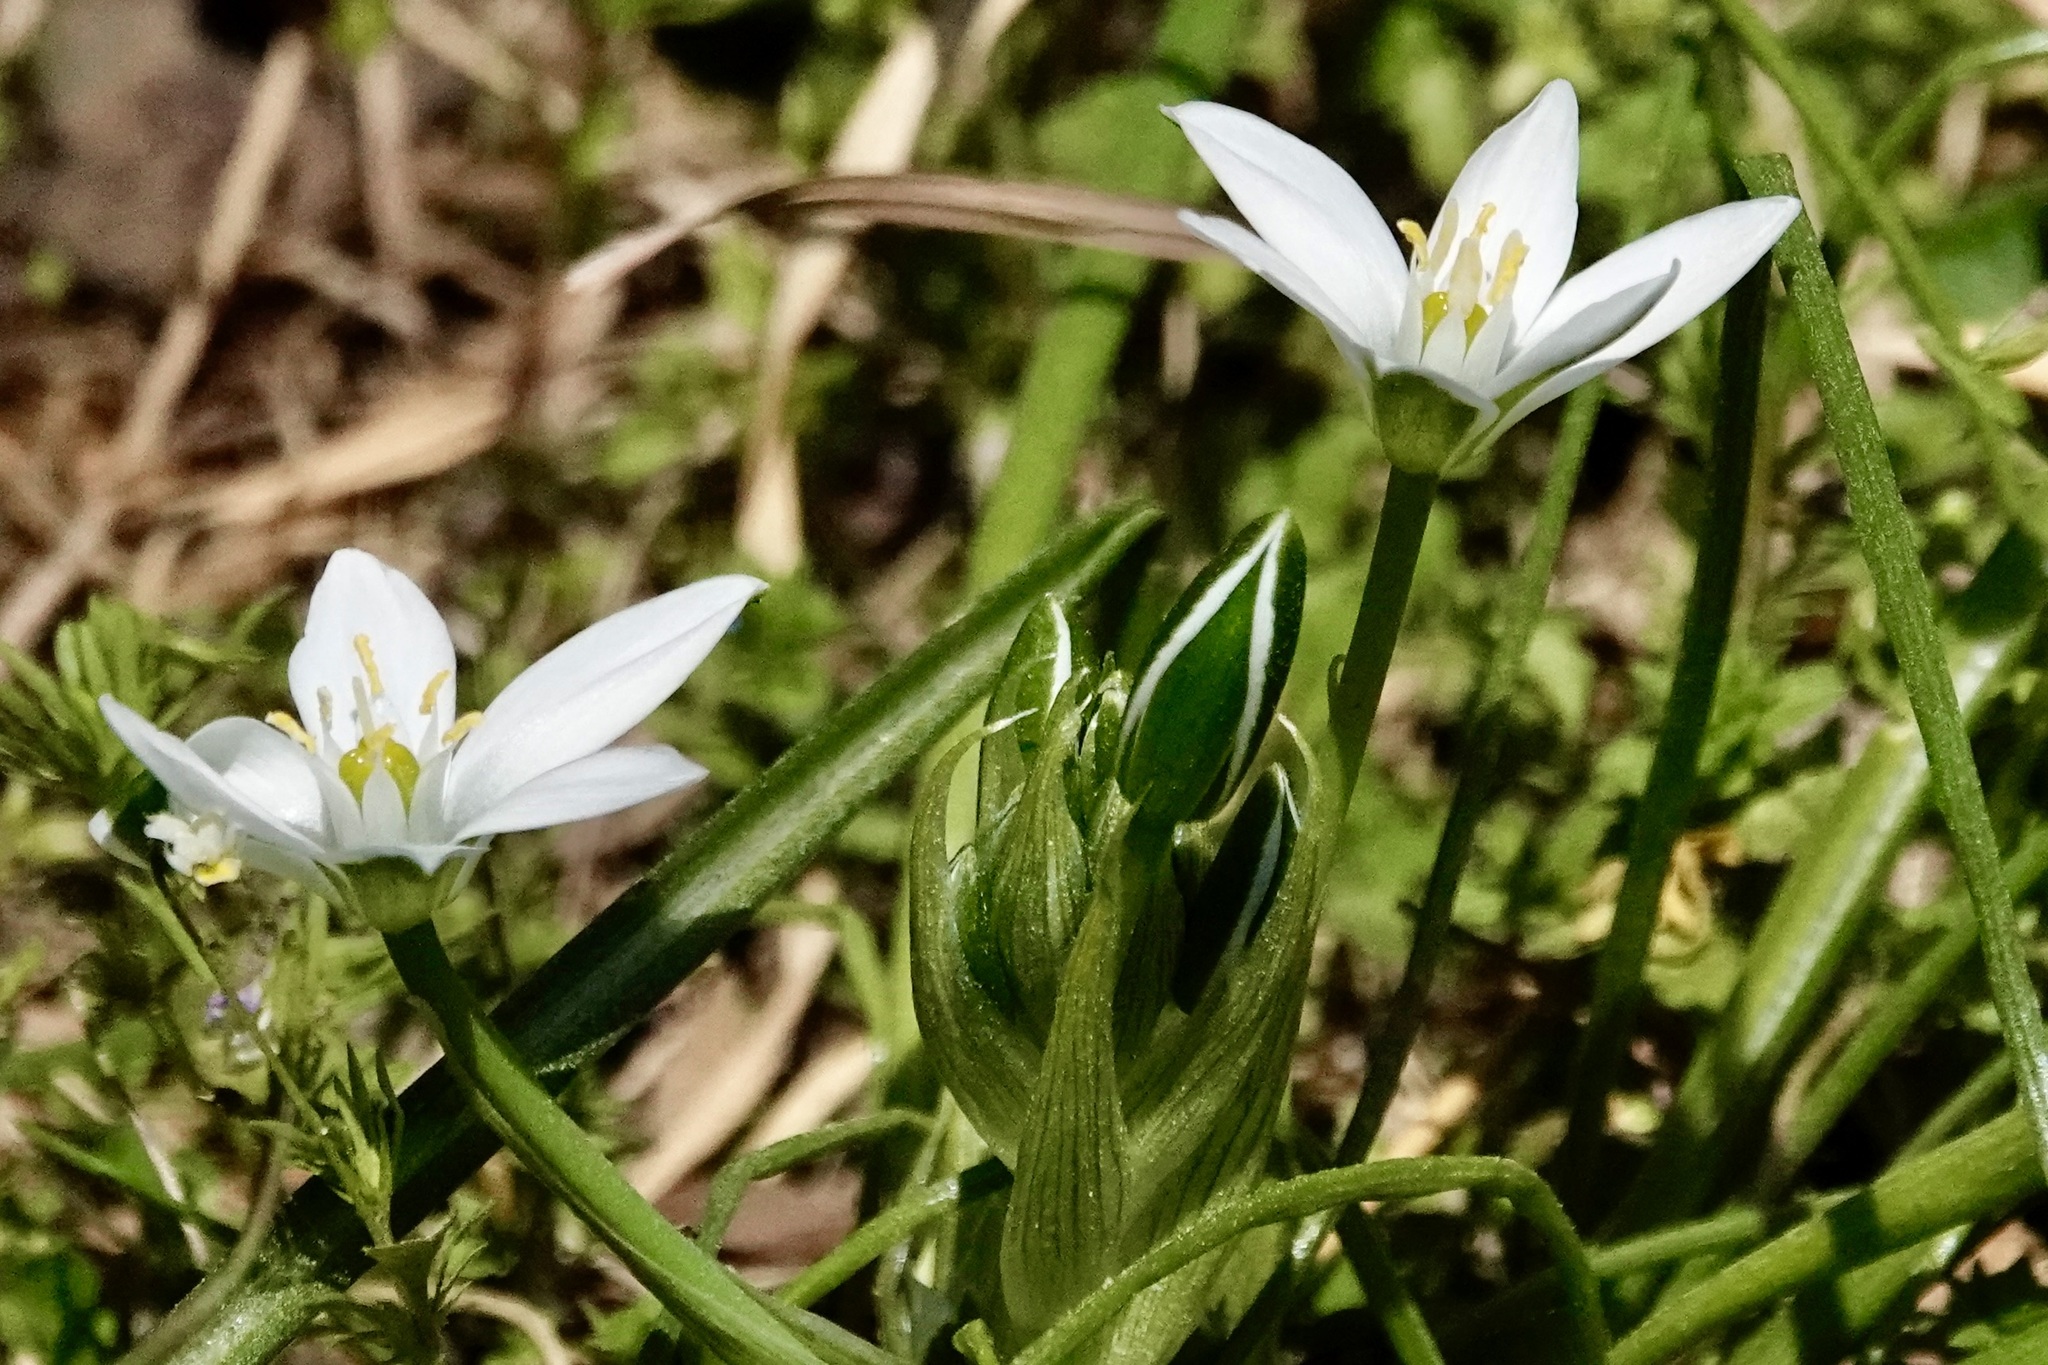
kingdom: Plantae
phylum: Tracheophyta
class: Liliopsida
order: Asparagales
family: Asparagaceae
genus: Ornithogalum
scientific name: Ornithogalum umbellatum
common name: Garden star-of-bethlehem
